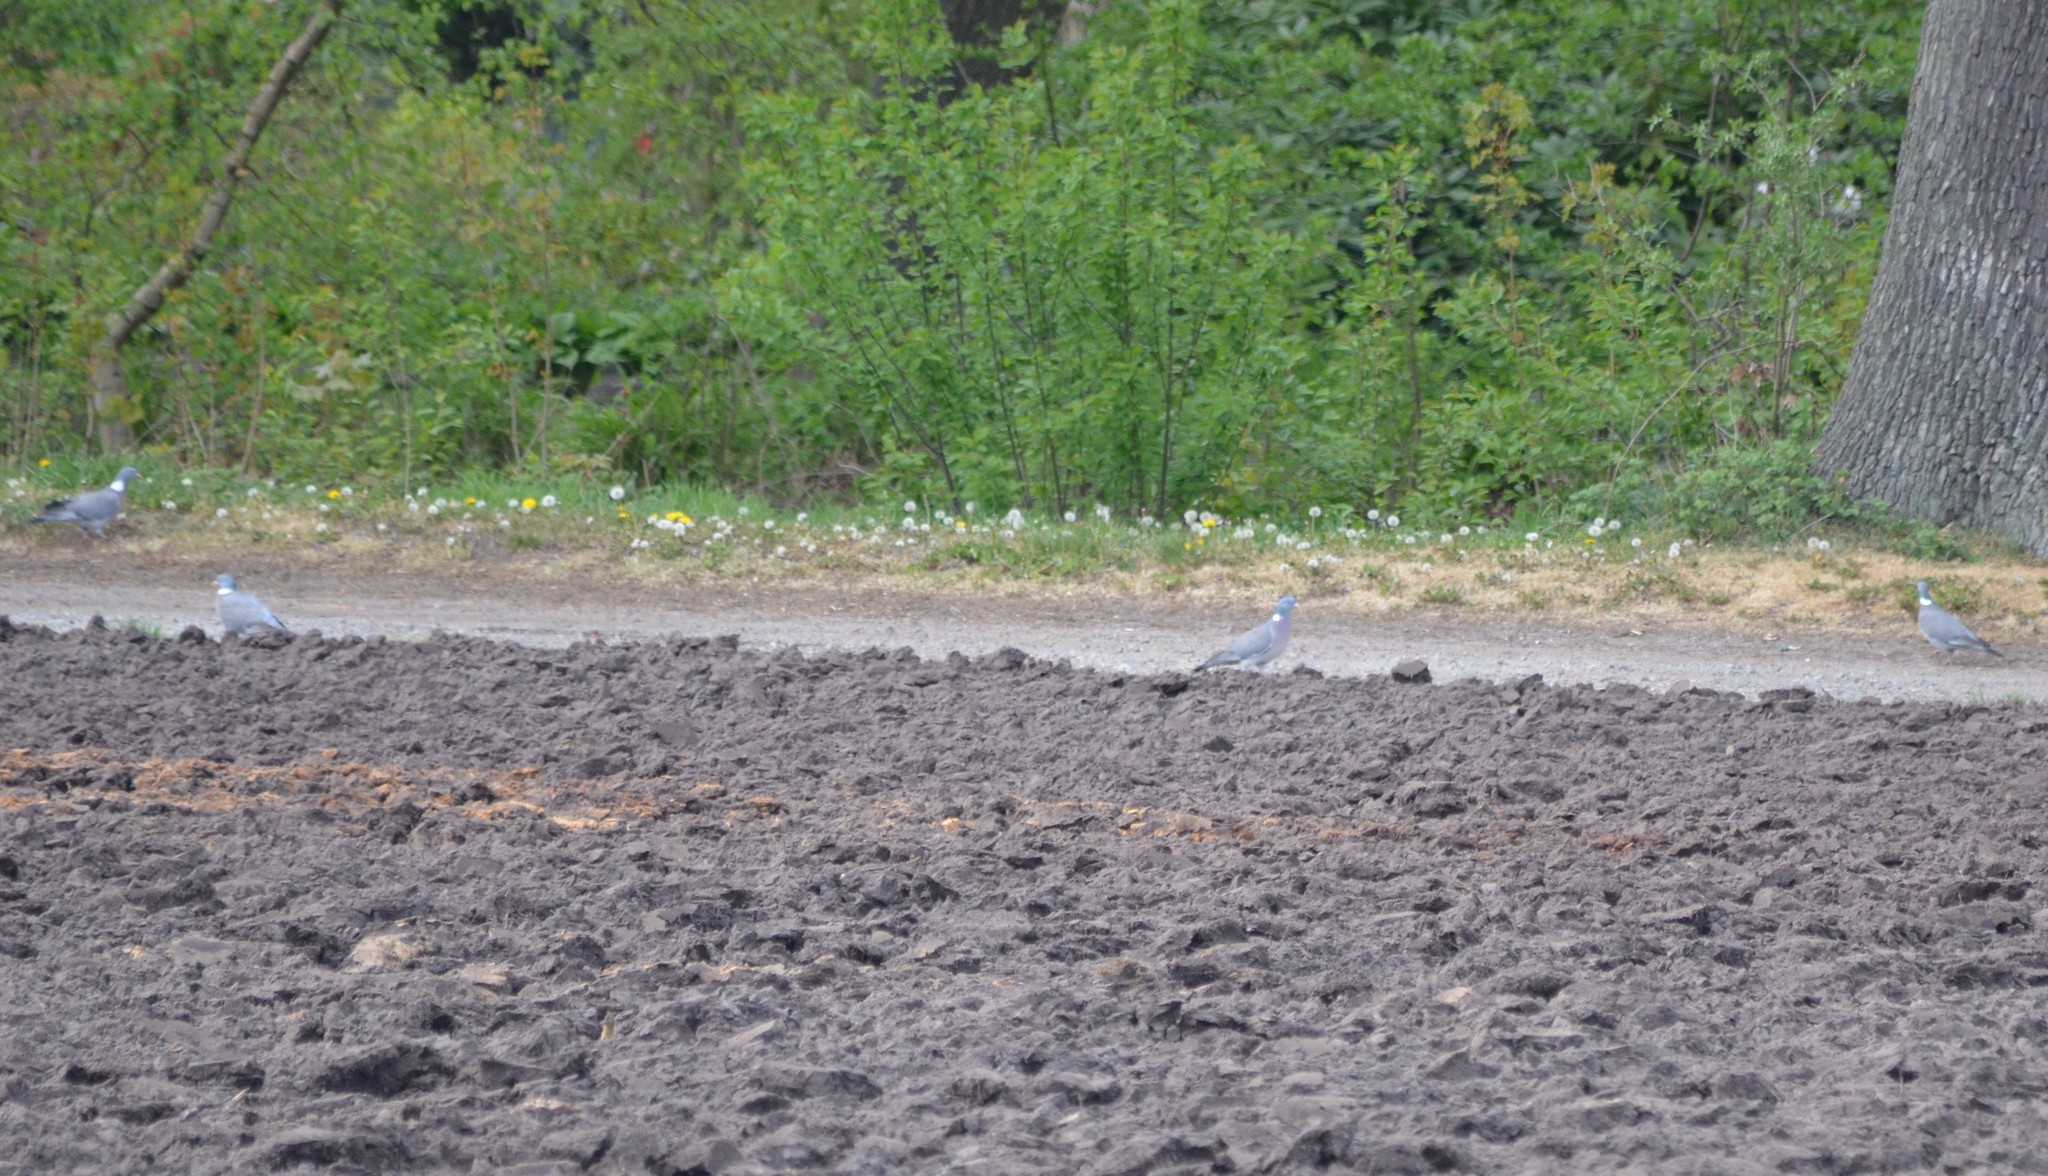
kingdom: Animalia
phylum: Chordata
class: Aves
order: Columbiformes
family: Columbidae
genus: Columba
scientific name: Columba palumbus
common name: Common wood pigeon
